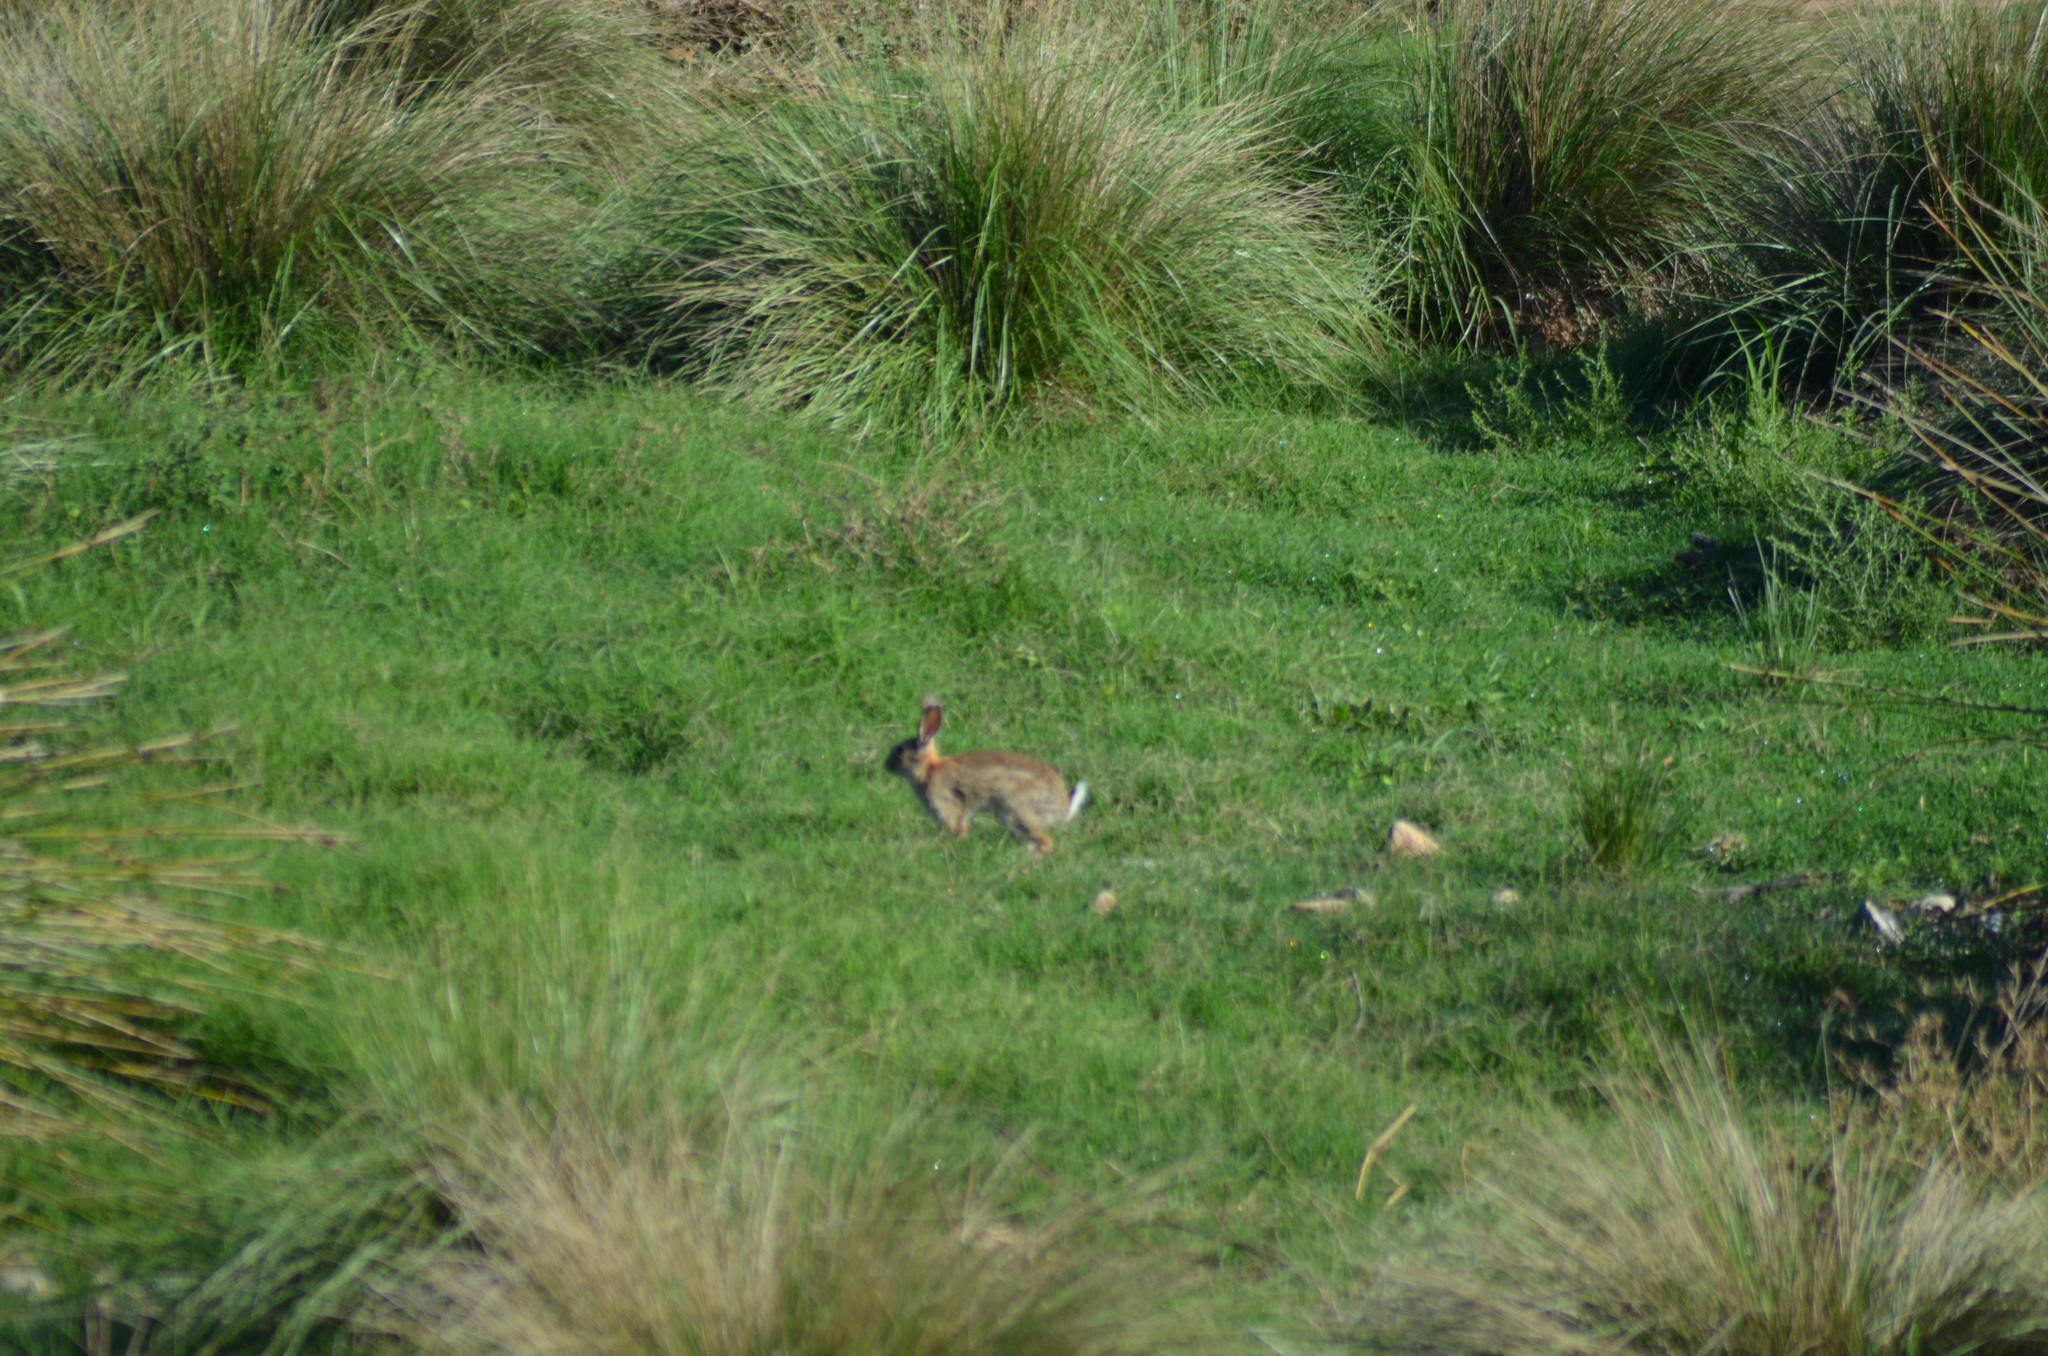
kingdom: Animalia
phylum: Chordata
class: Mammalia
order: Lagomorpha
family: Leporidae
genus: Oryctolagus
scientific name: Oryctolagus cuniculus
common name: European rabbit
